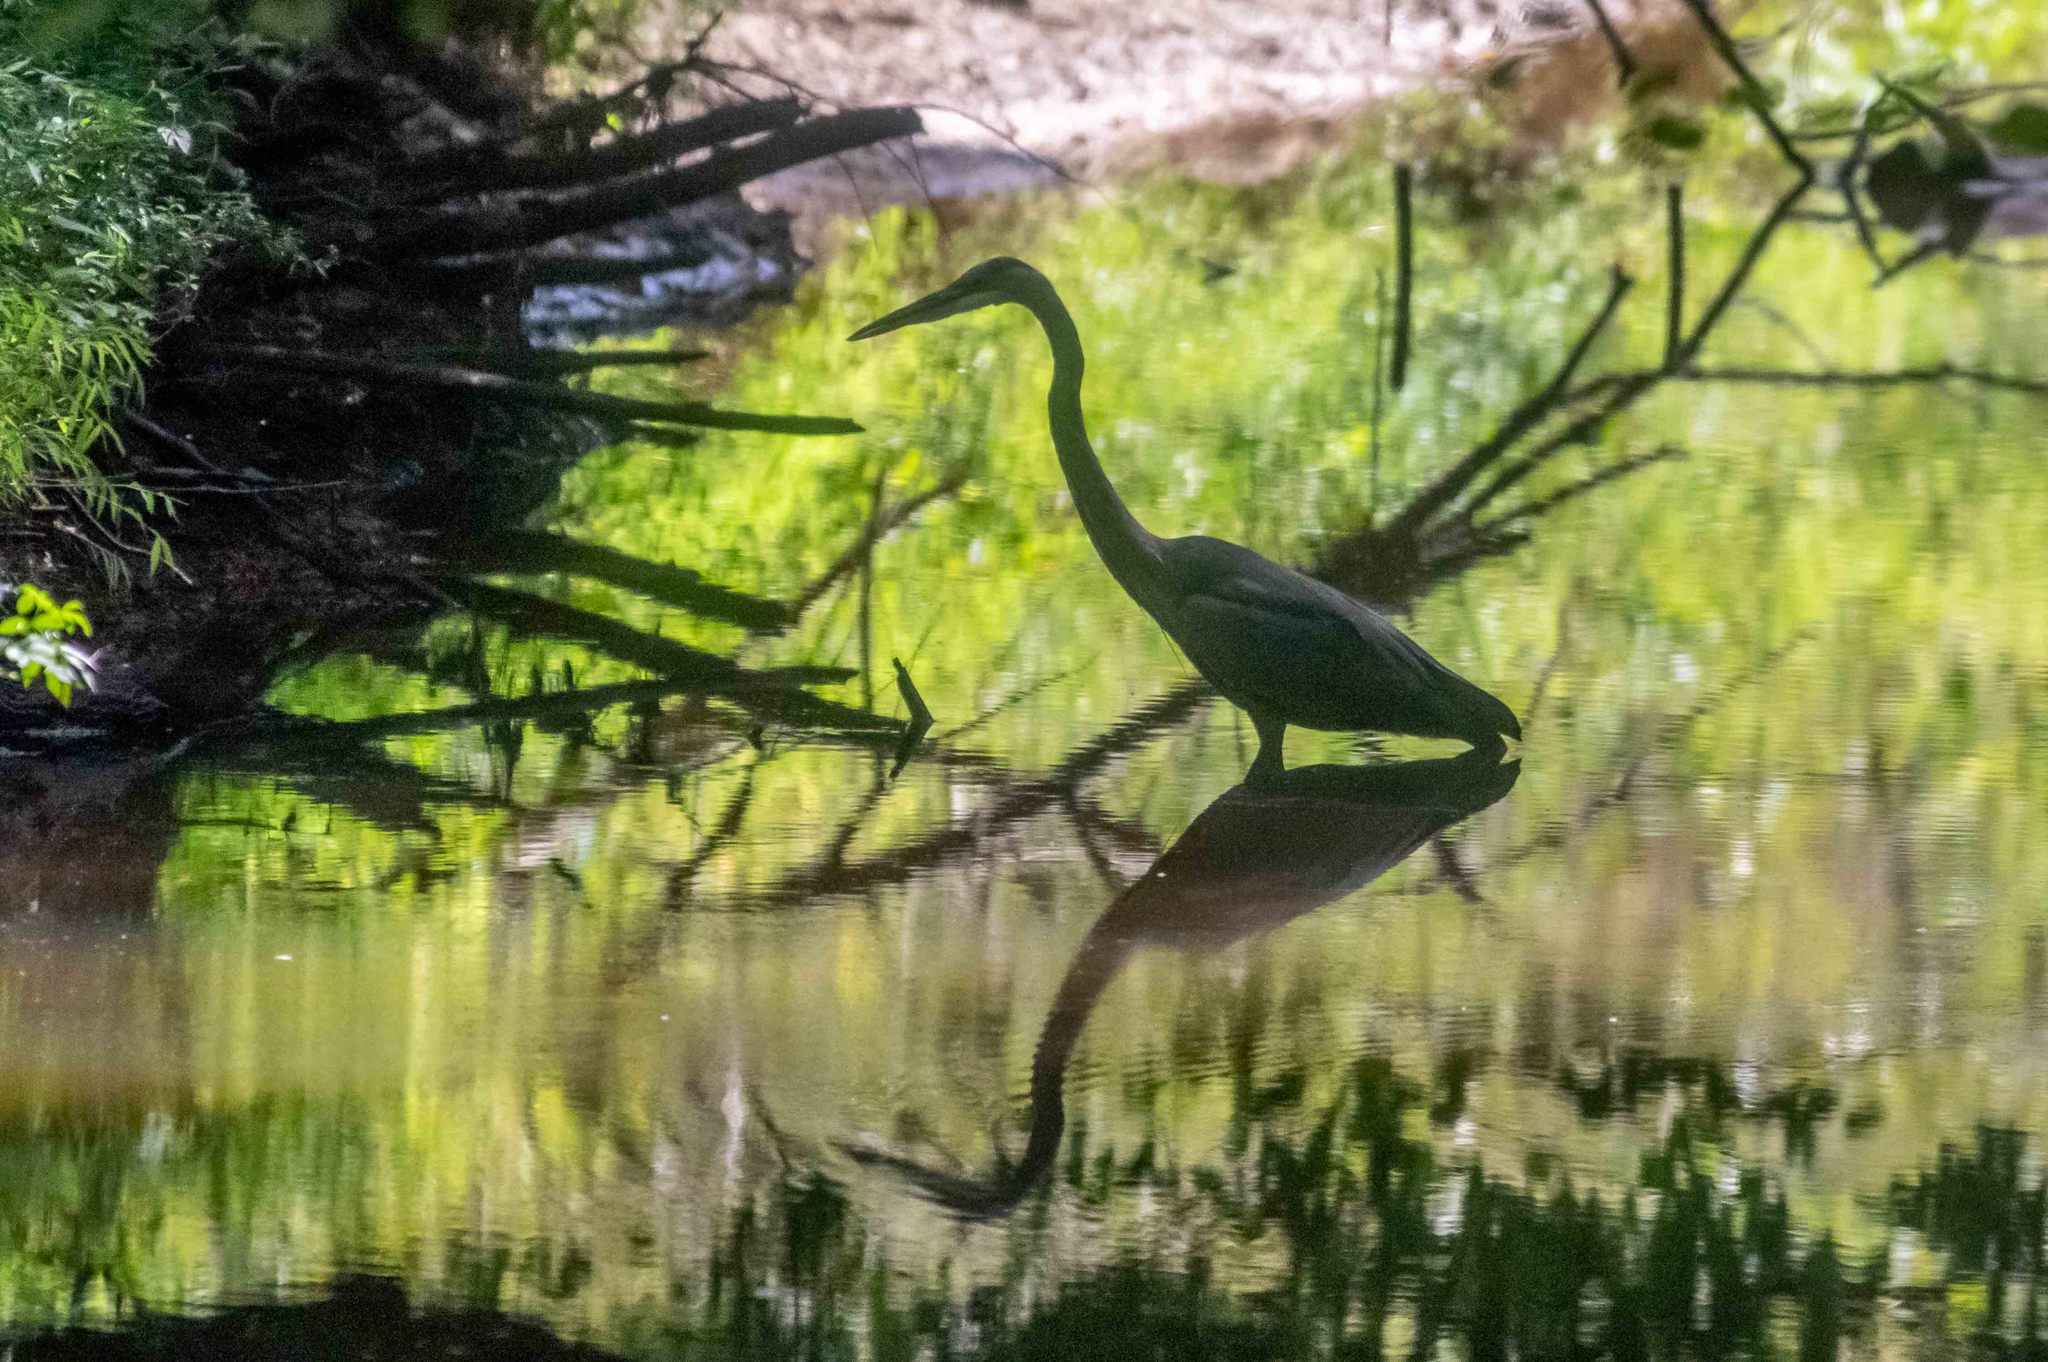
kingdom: Animalia
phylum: Chordata
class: Aves
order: Pelecaniformes
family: Ardeidae
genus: Ardea
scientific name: Ardea herodias
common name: Great blue heron
